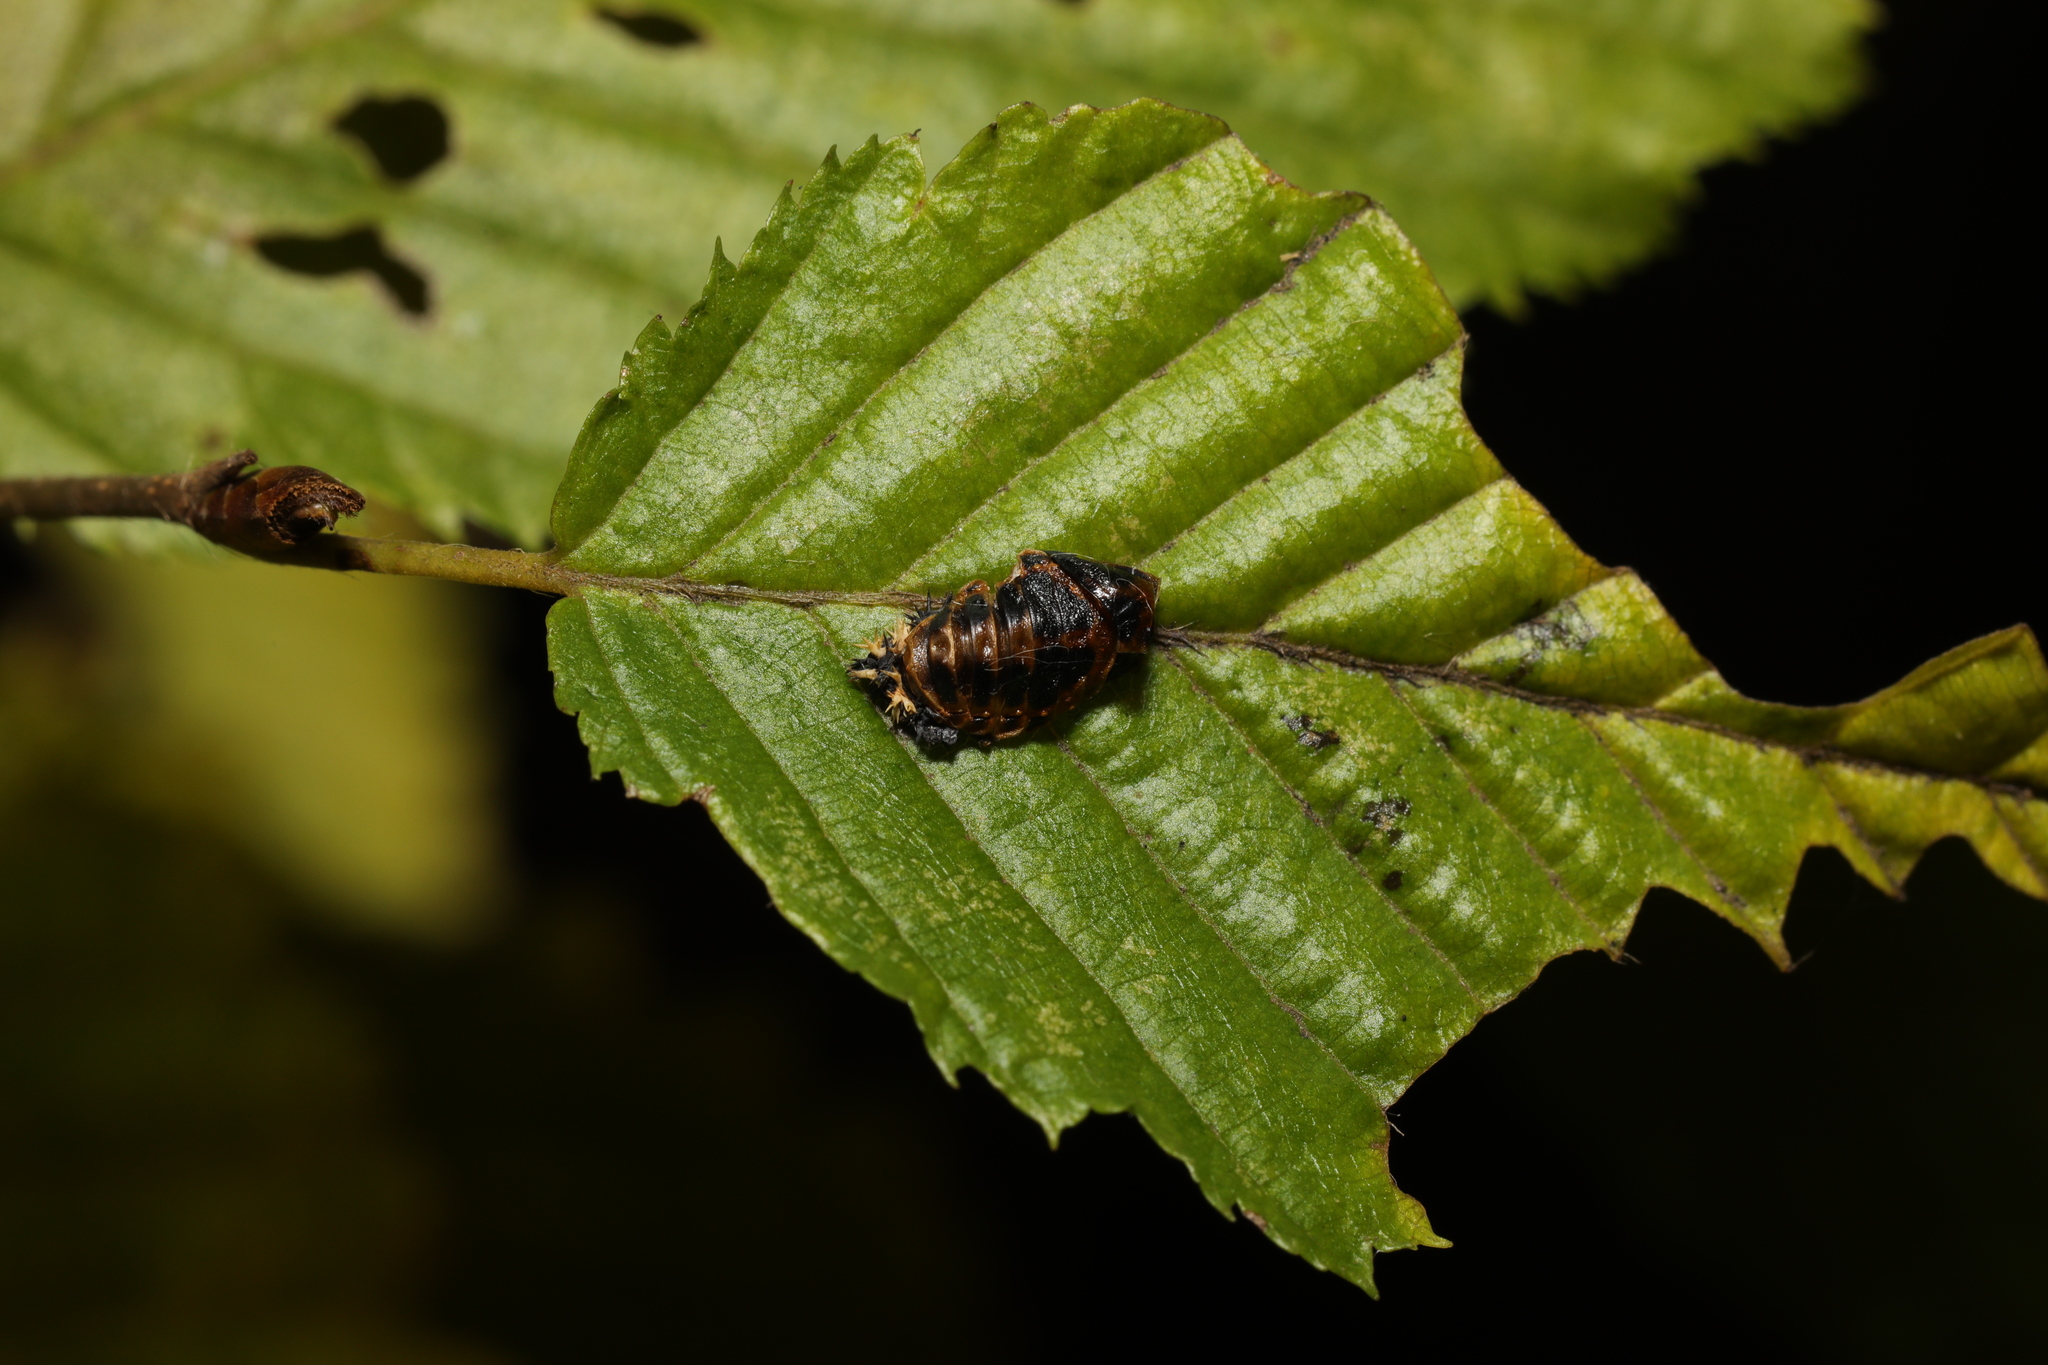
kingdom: Animalia
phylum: Arthropoda
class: Insecta
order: Coleoptera
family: Coccinellidae
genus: Harmonia
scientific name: Harmonia axyridis
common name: Harlequin ladybird
